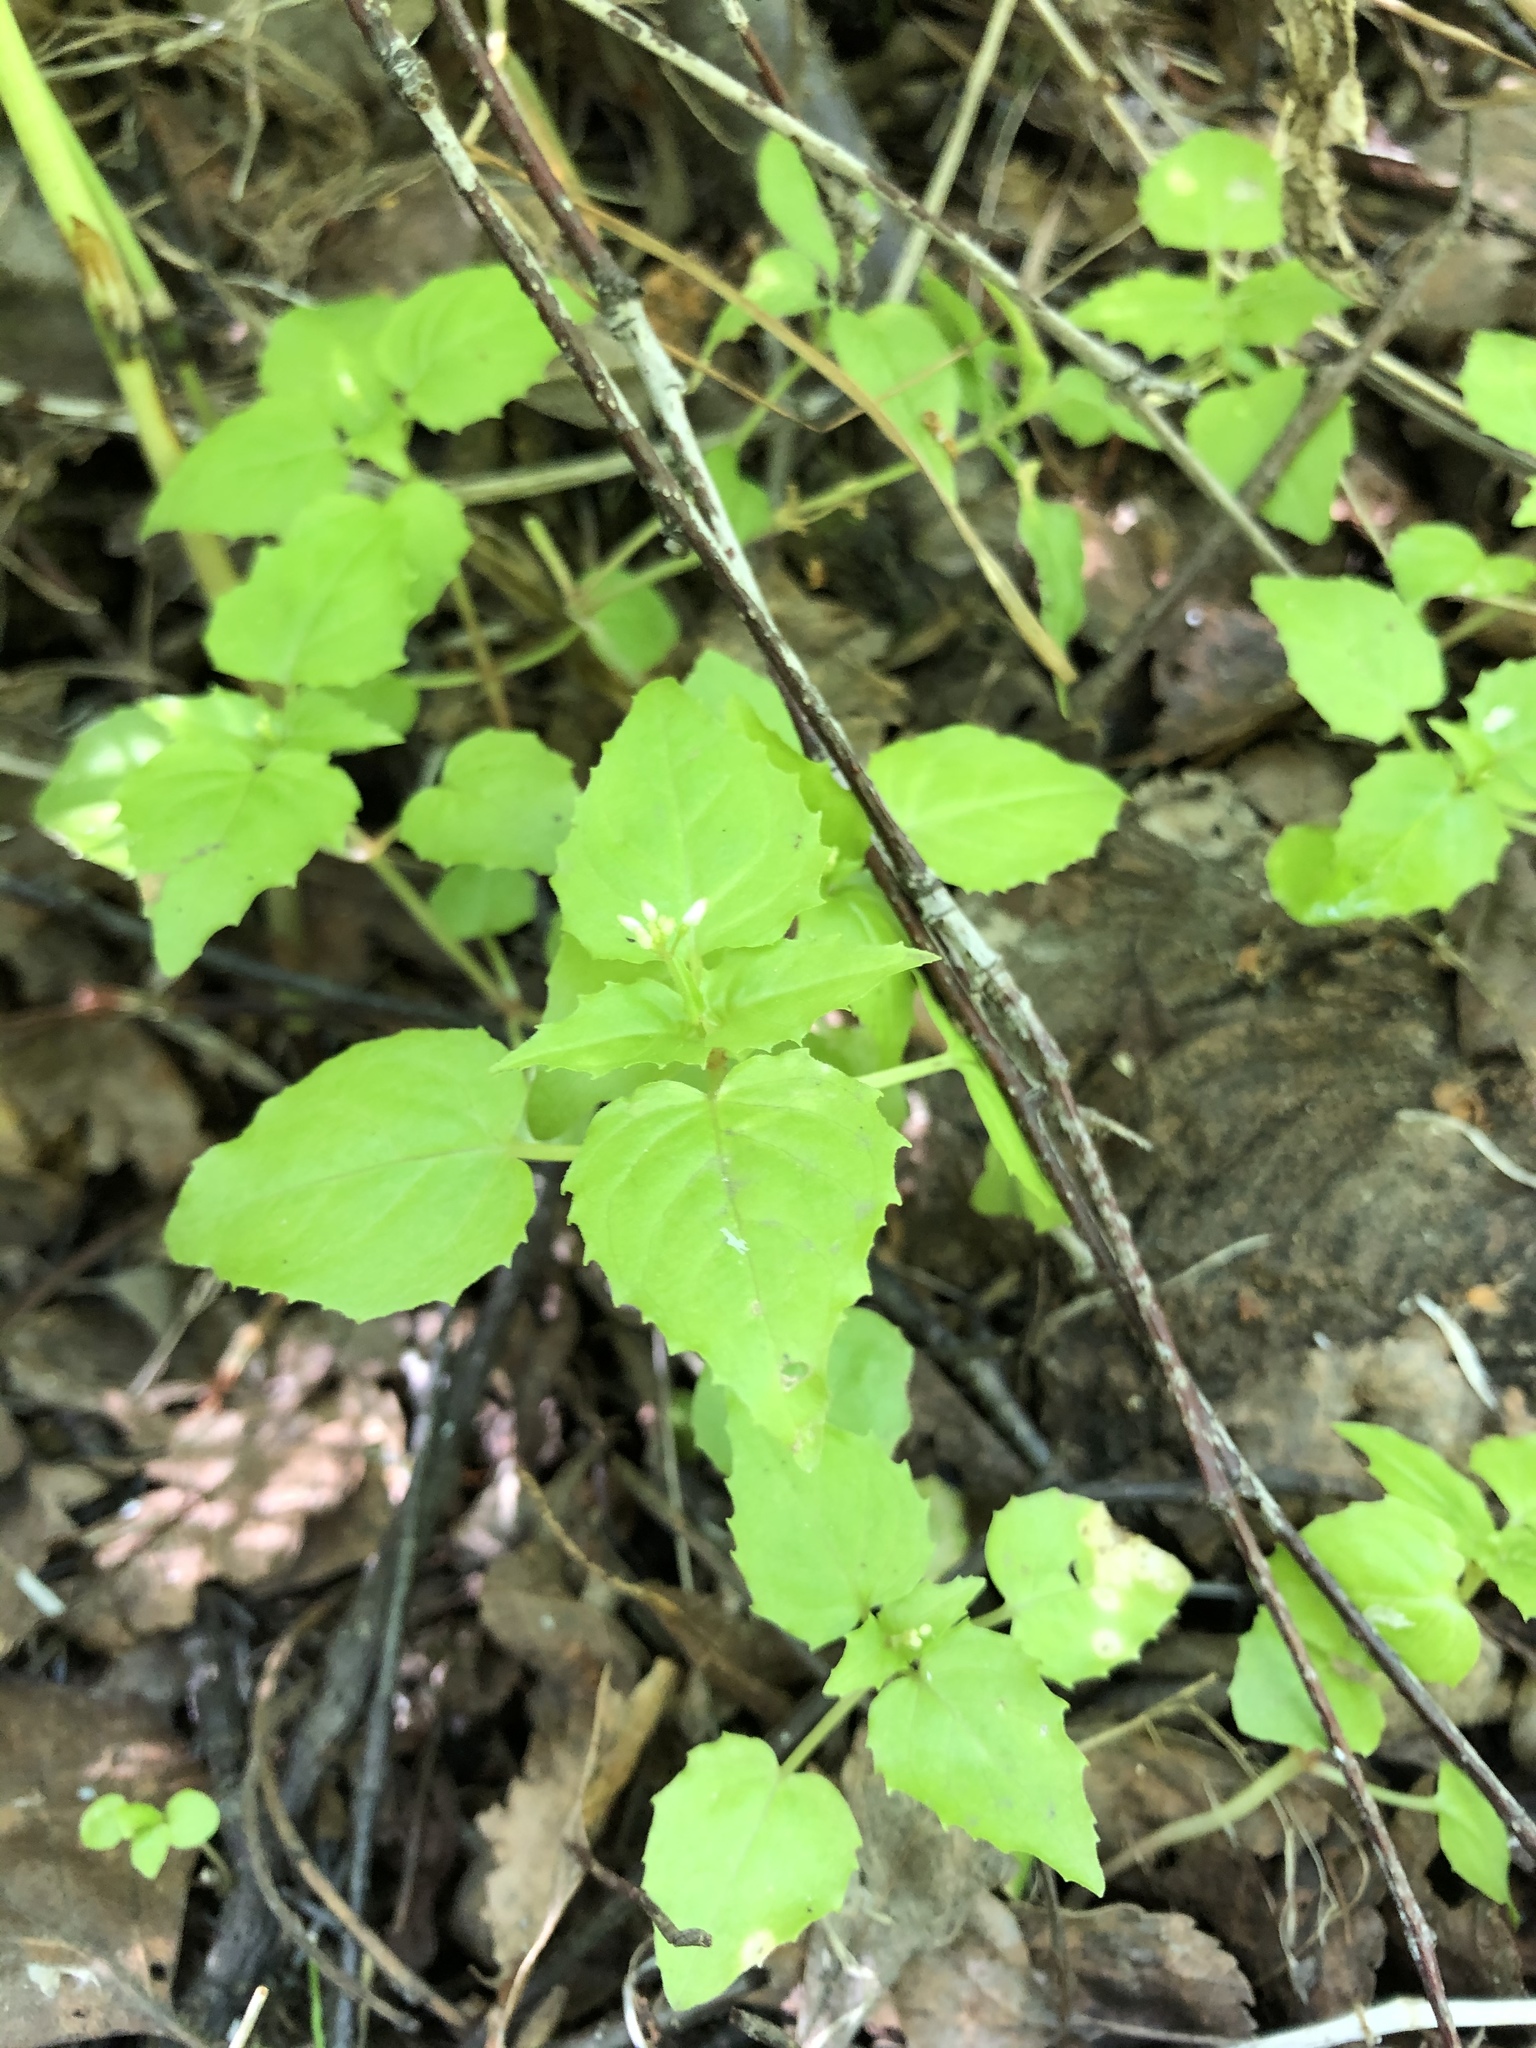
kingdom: Plantae
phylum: Tracheophyta
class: Magnoliopsida
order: Myrtales
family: Onagraceae
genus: Circaea
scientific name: Circaea alpina
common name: Alpine enchanter's-nightshade
